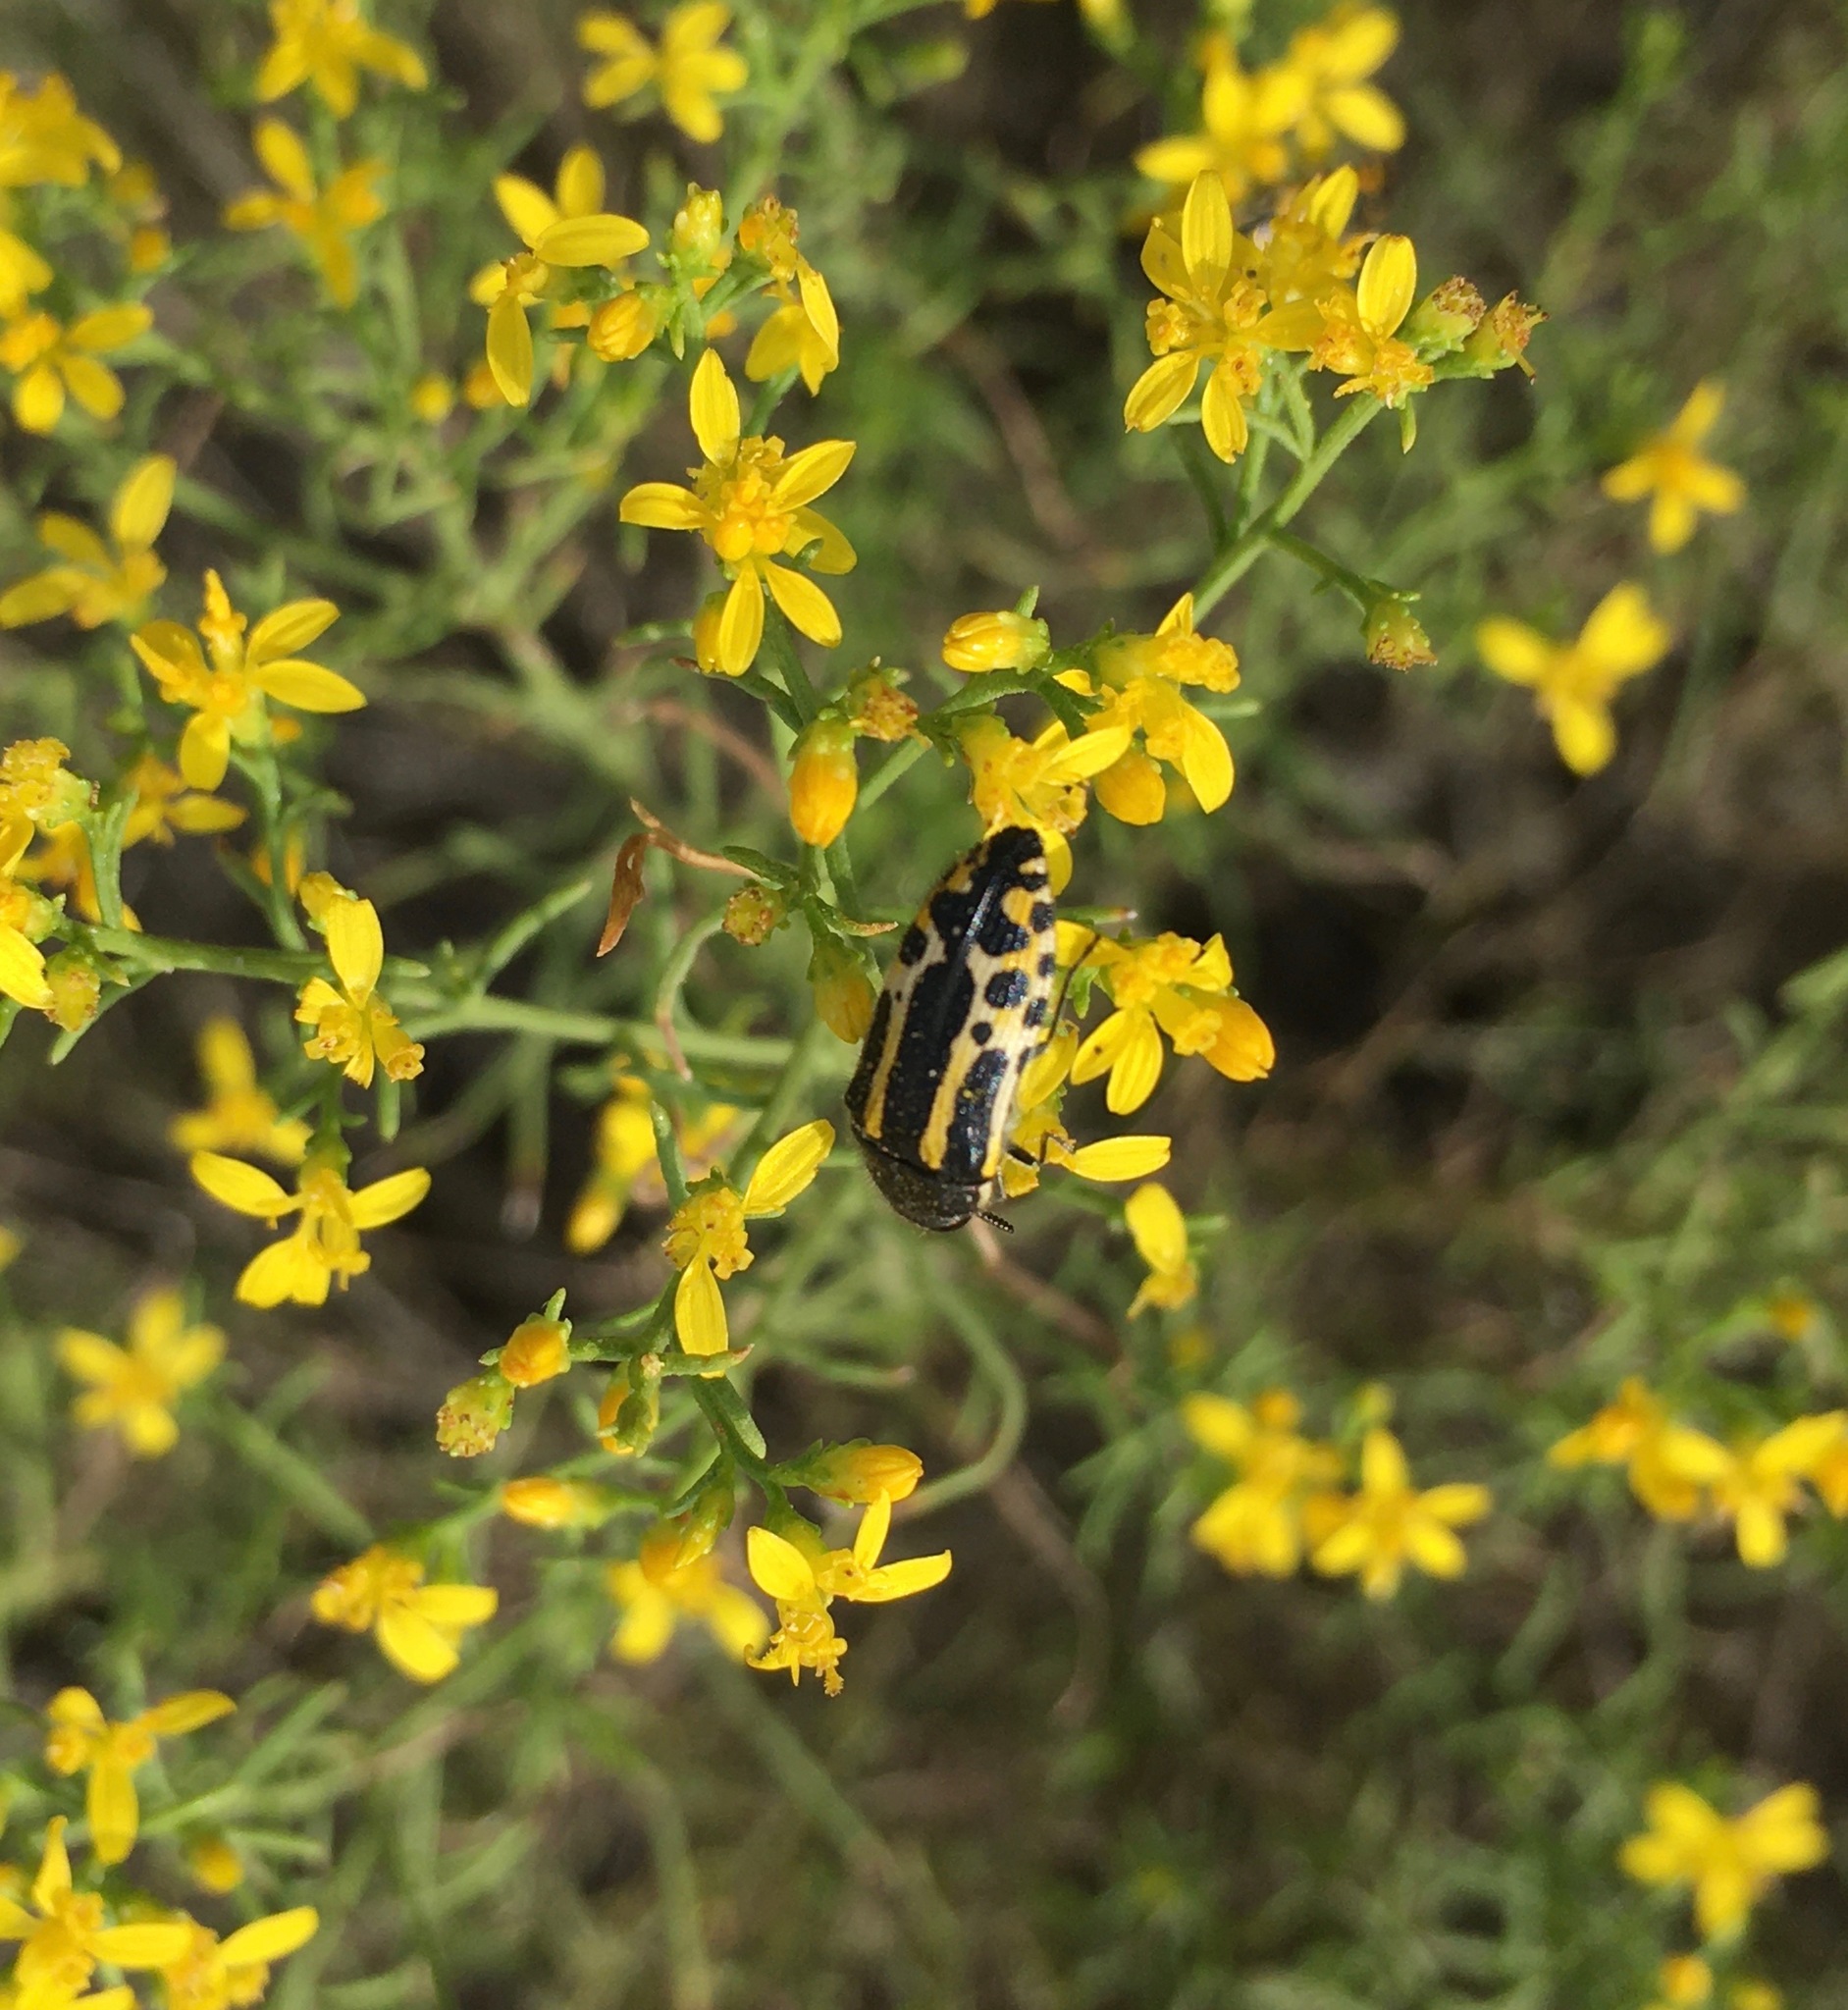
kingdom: Animalia
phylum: Arthropoda
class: Insecta
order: Coleoptera
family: Buprestidae
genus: Acmaeodera
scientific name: Acmaeodera scalaris
